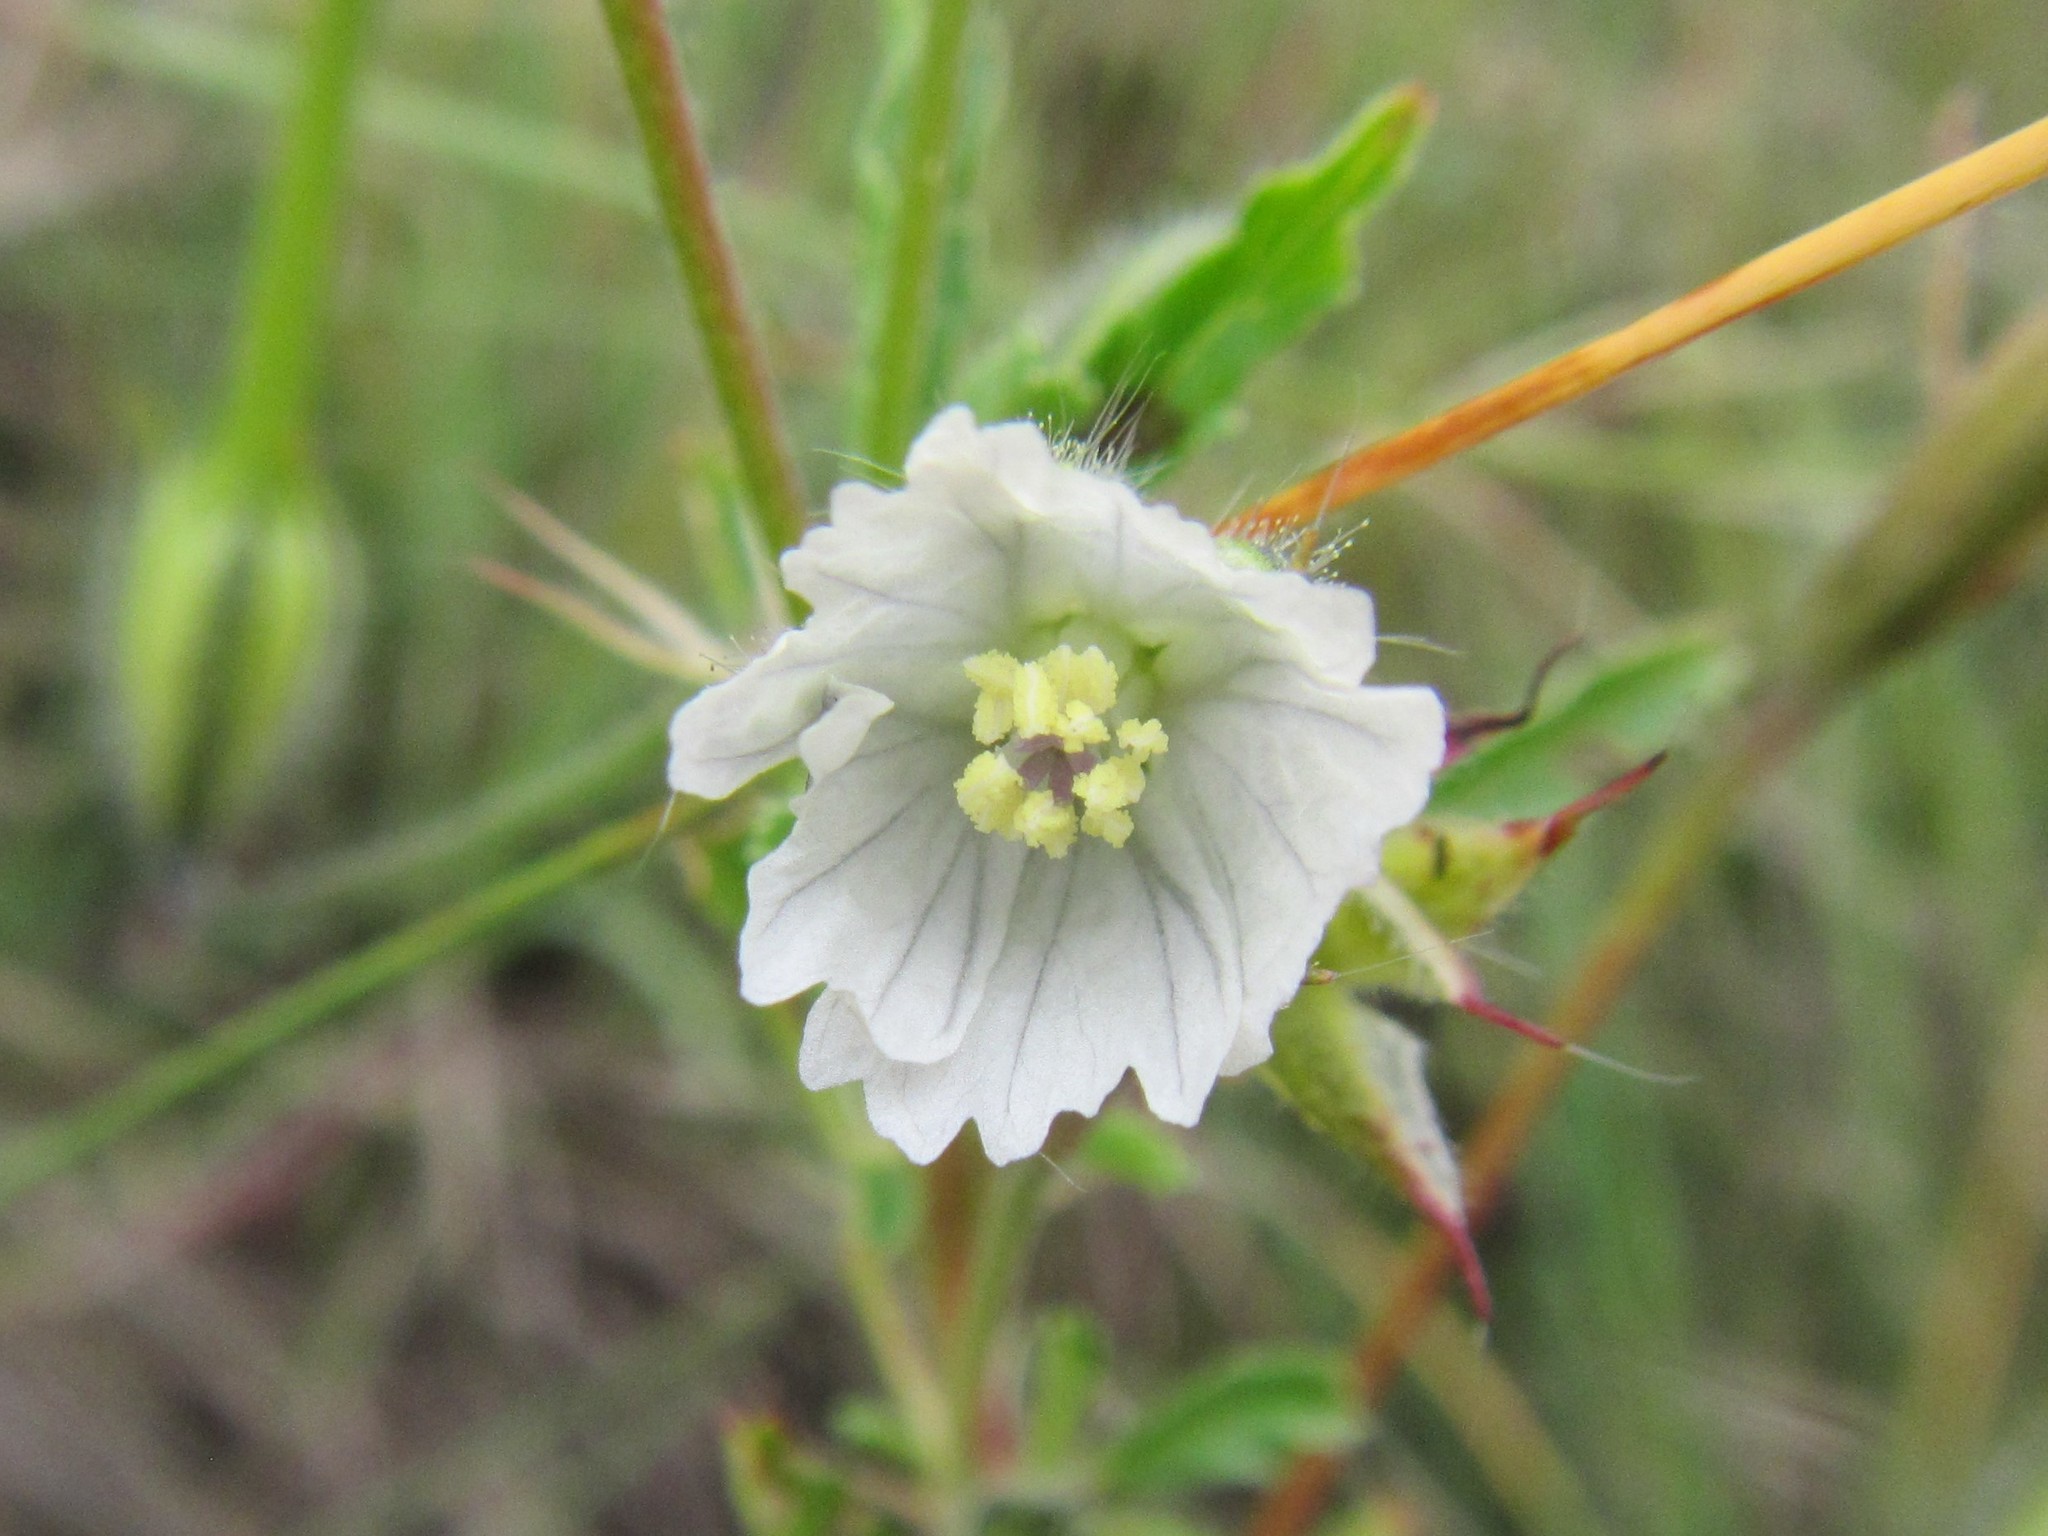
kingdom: Plantae
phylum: Tracheophyta
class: Magnoliopsida
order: Geraniales
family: Geraniaceae
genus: Monsonia
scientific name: Monsonia angustifolia
